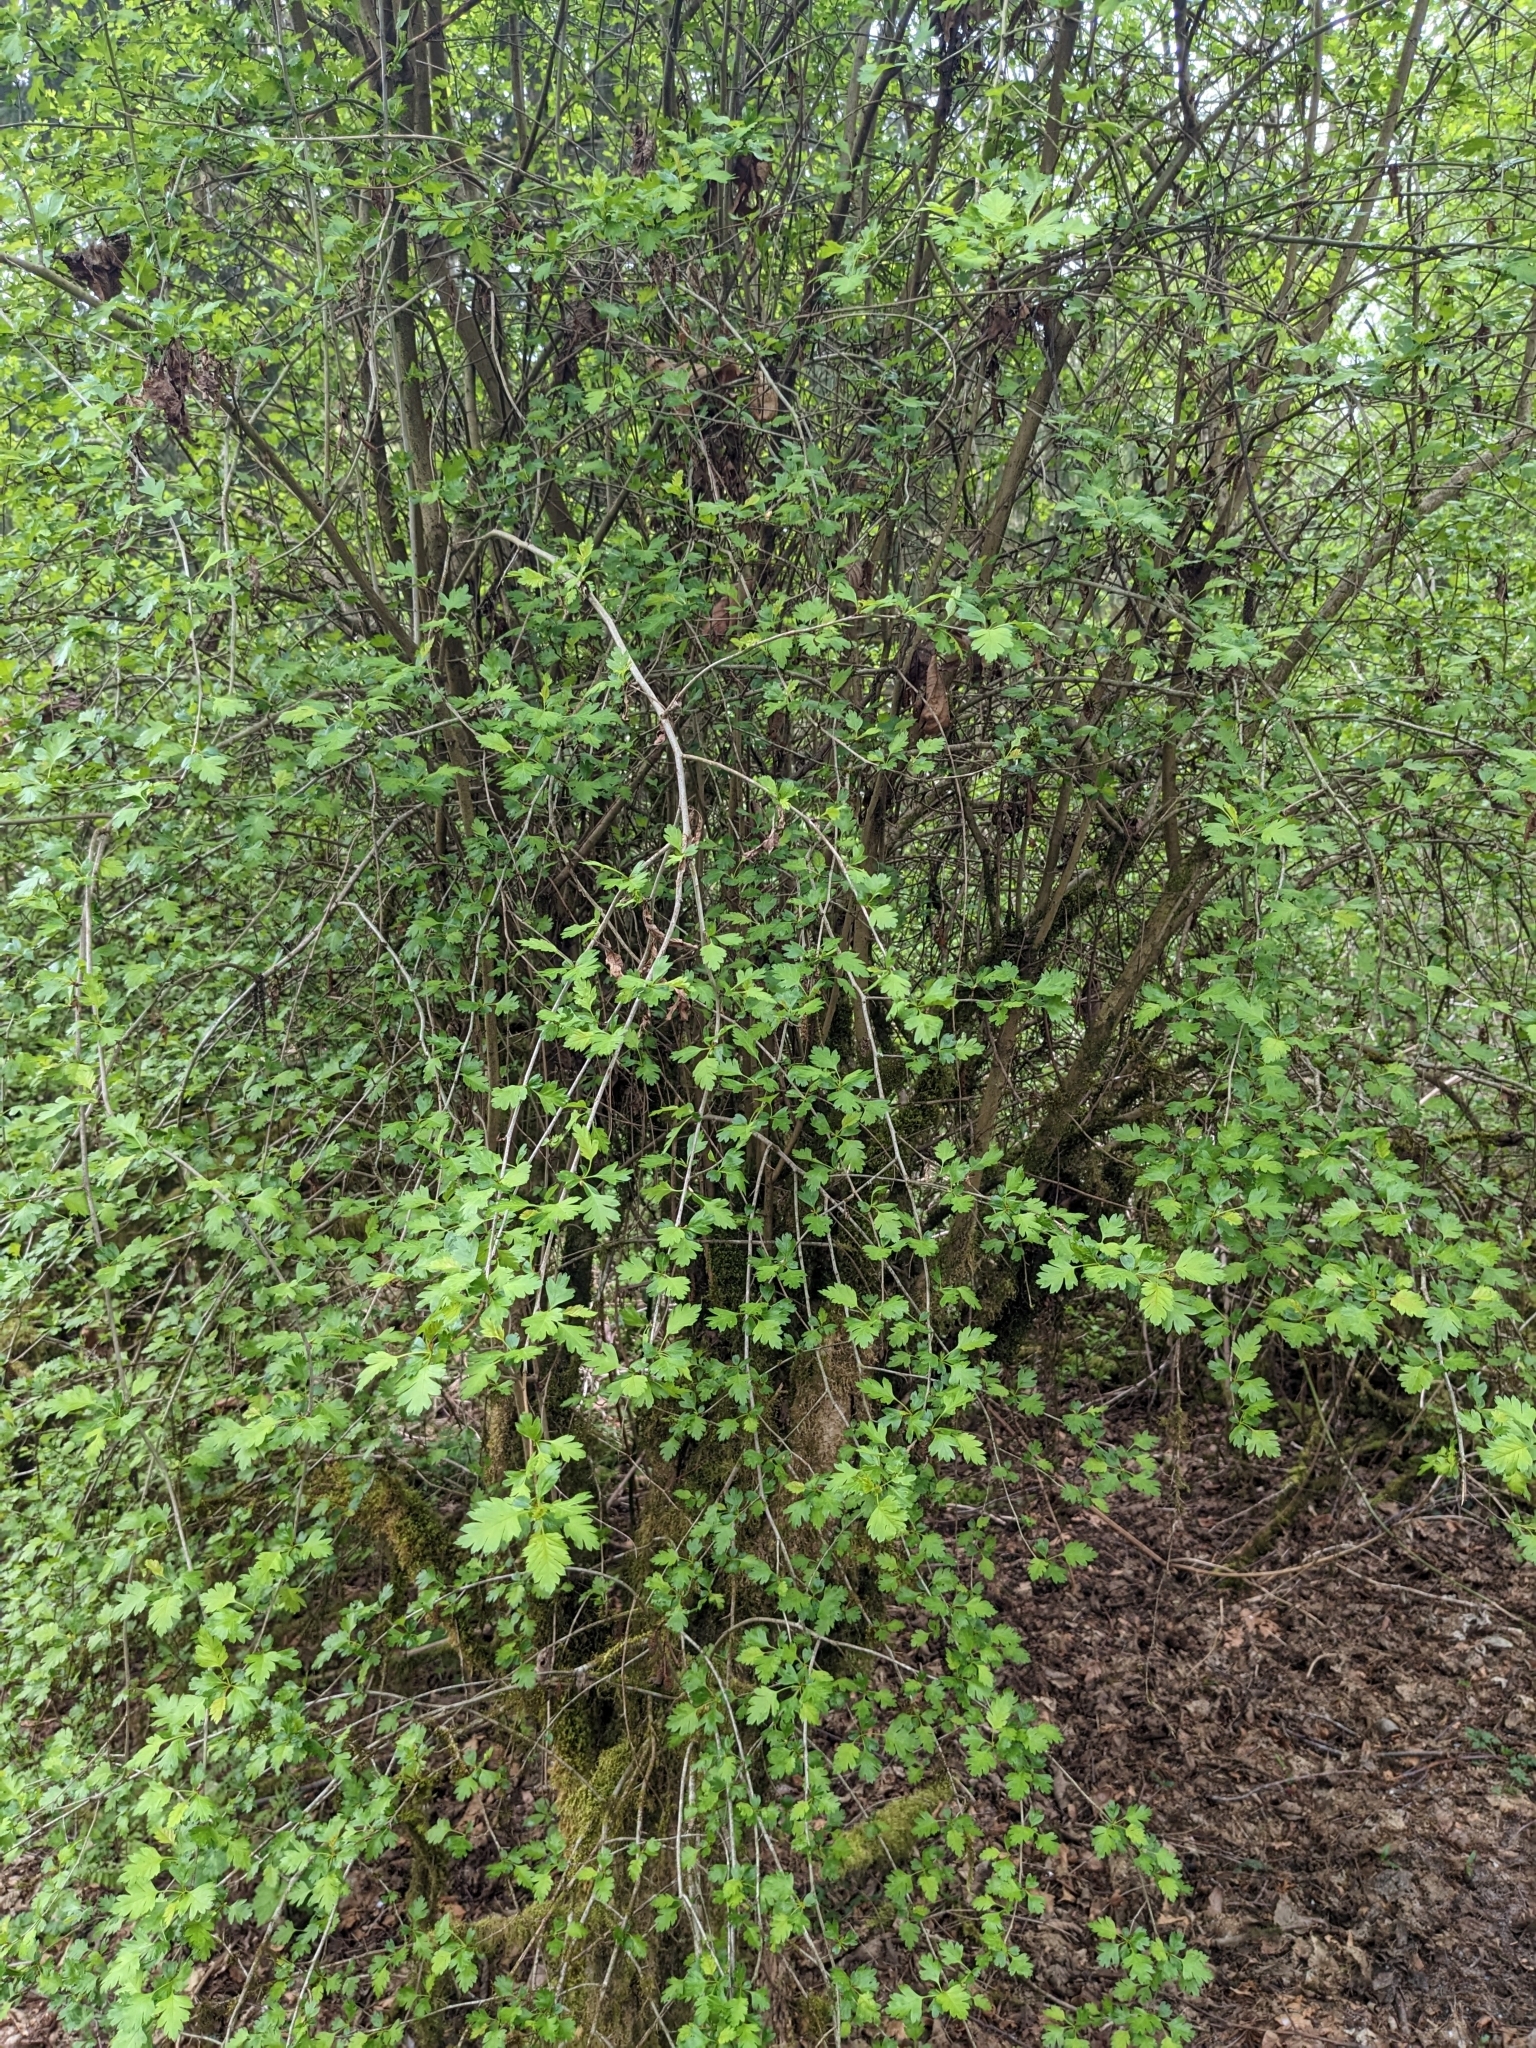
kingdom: Plantae
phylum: Tracheophyta
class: Magnoliopsida
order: Rosales
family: Rosaceae
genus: Crataegus
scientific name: Crataegus monogyna
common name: Hawthorn
